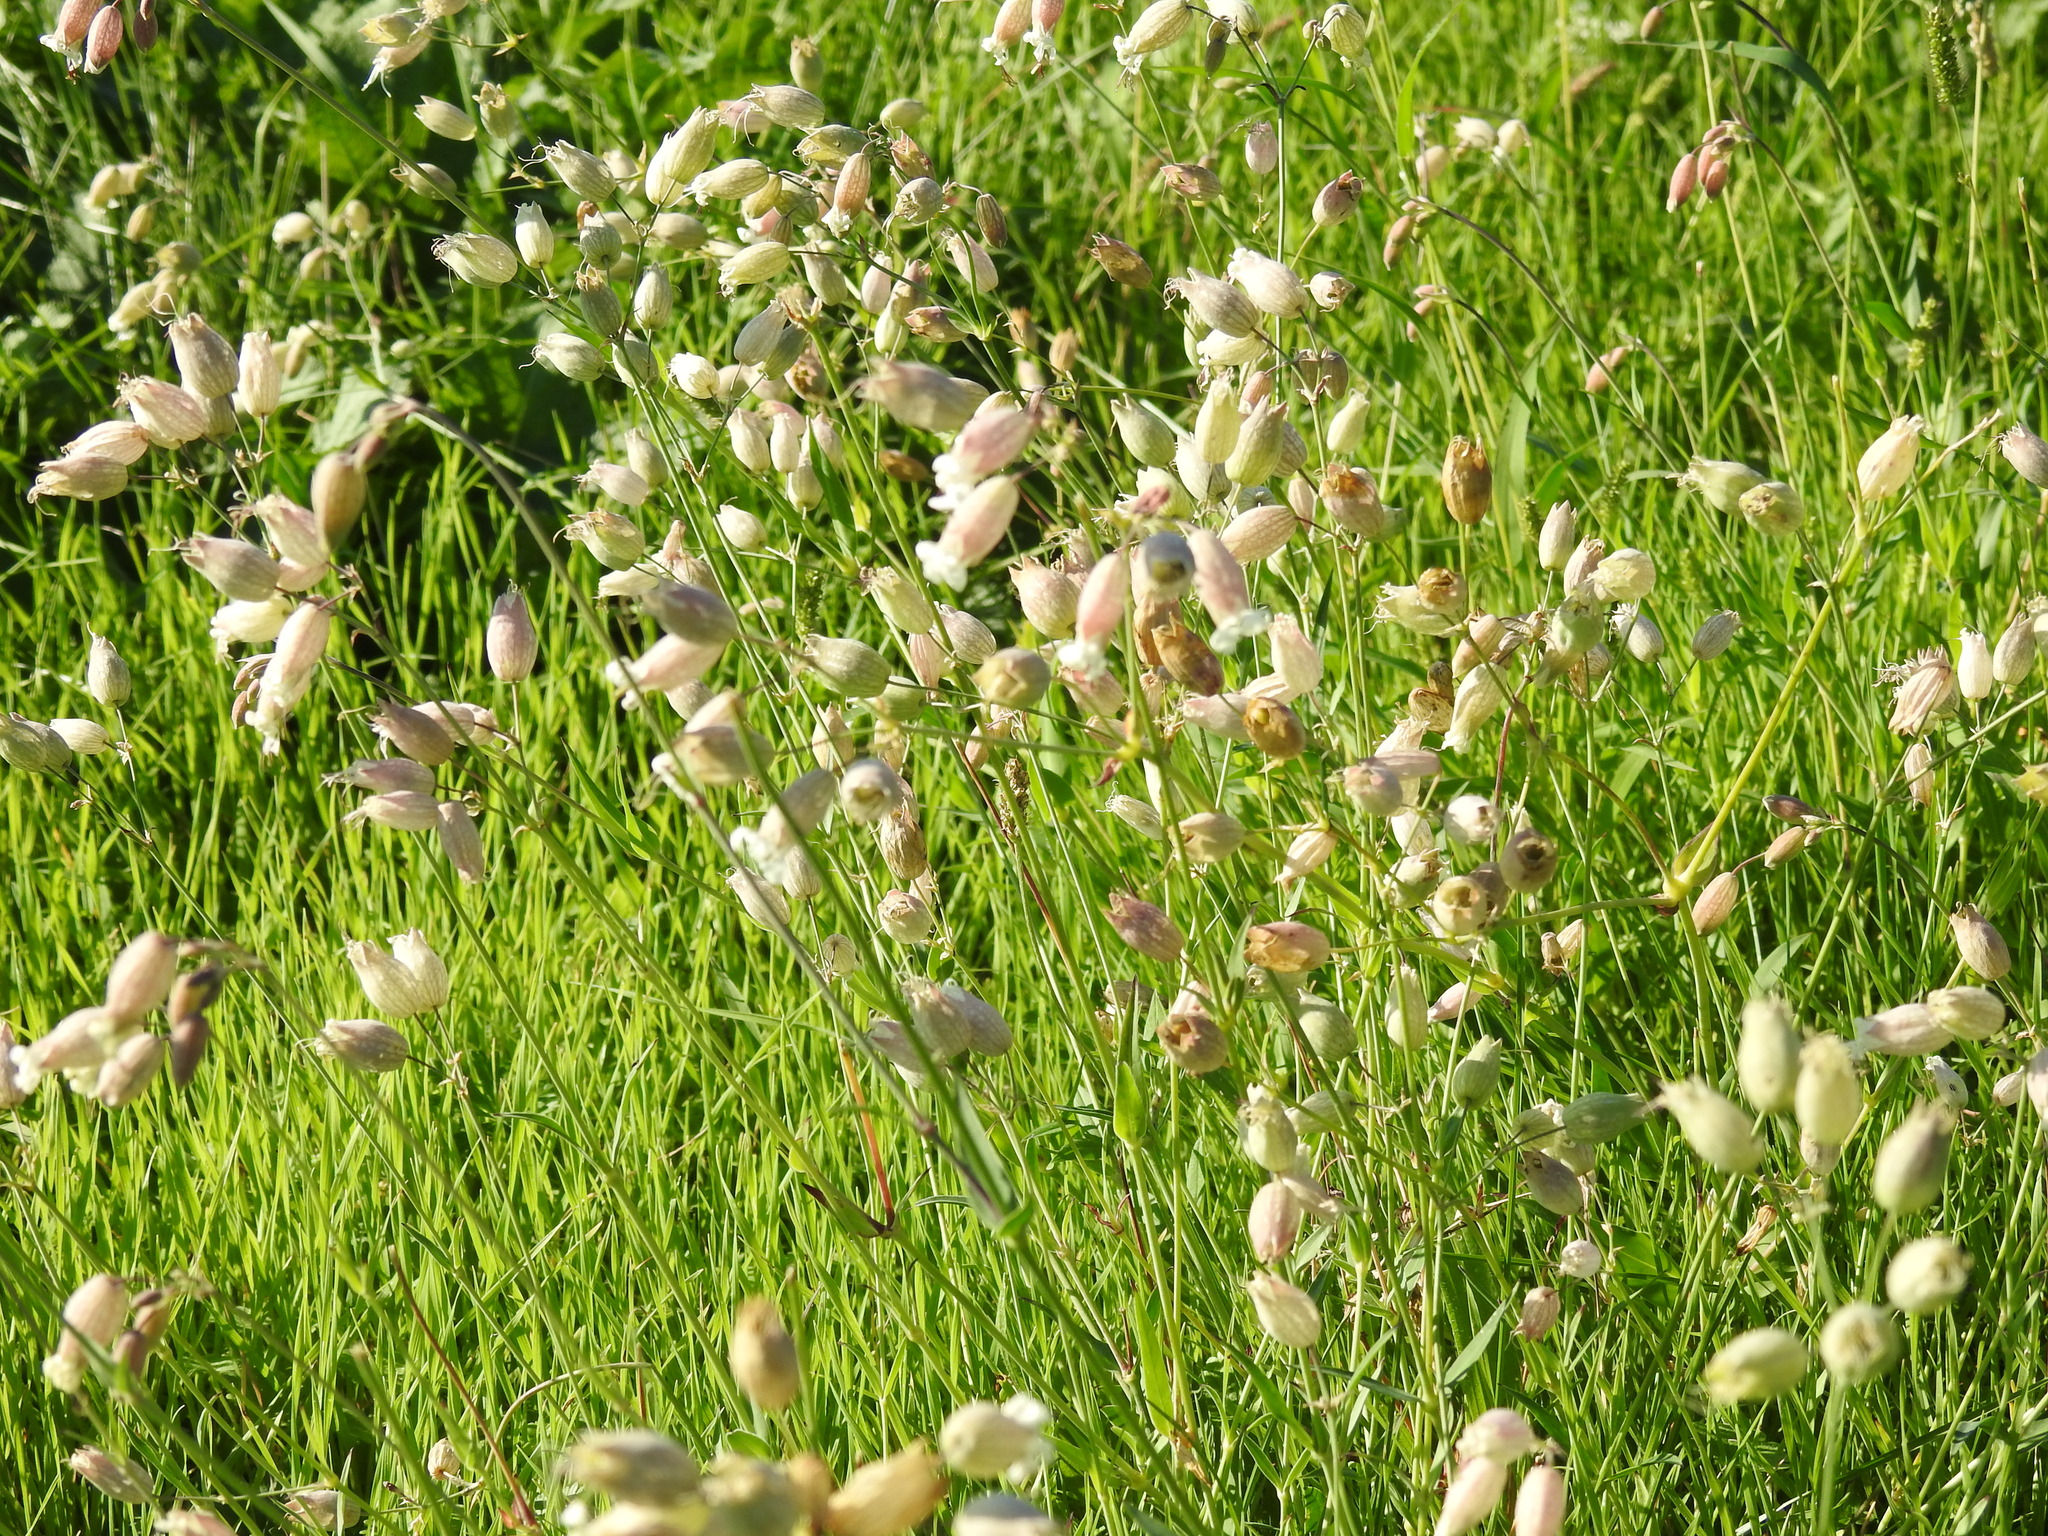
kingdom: Plantae
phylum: Tracheophyta
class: Magnoliopsida
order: Caryophyllales
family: Caryophyllaceae
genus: Silene
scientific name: Silene vulgaris
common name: Bladder campion
